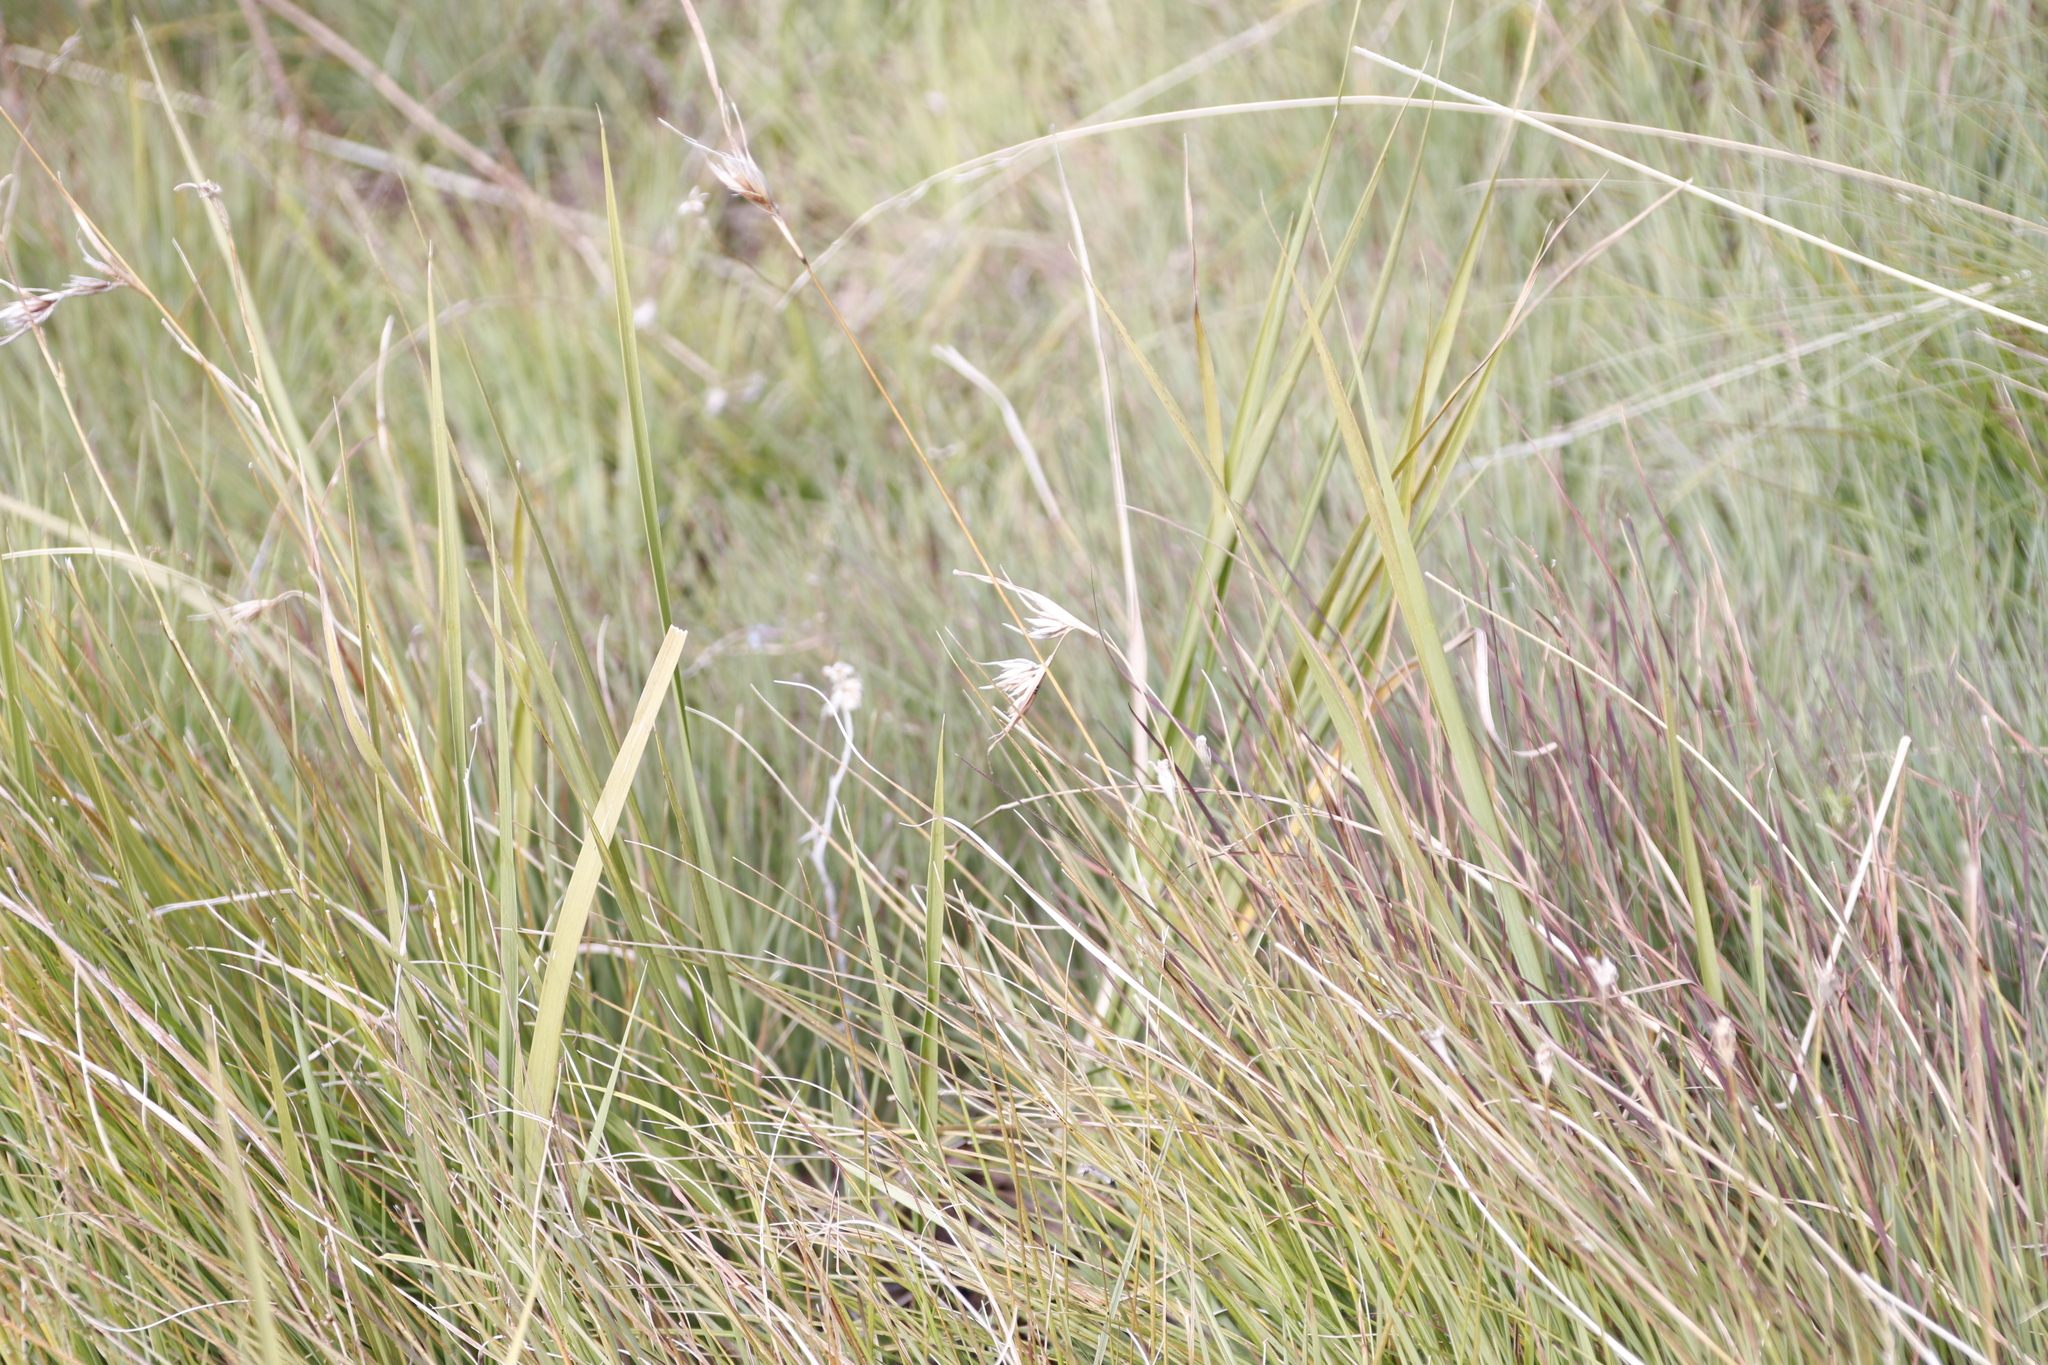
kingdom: Plantae
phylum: Tracheophyta
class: Liliopsida
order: Poales
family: Poaceae
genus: Themeda
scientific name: Themeda triandra
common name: Kangaroo grass
